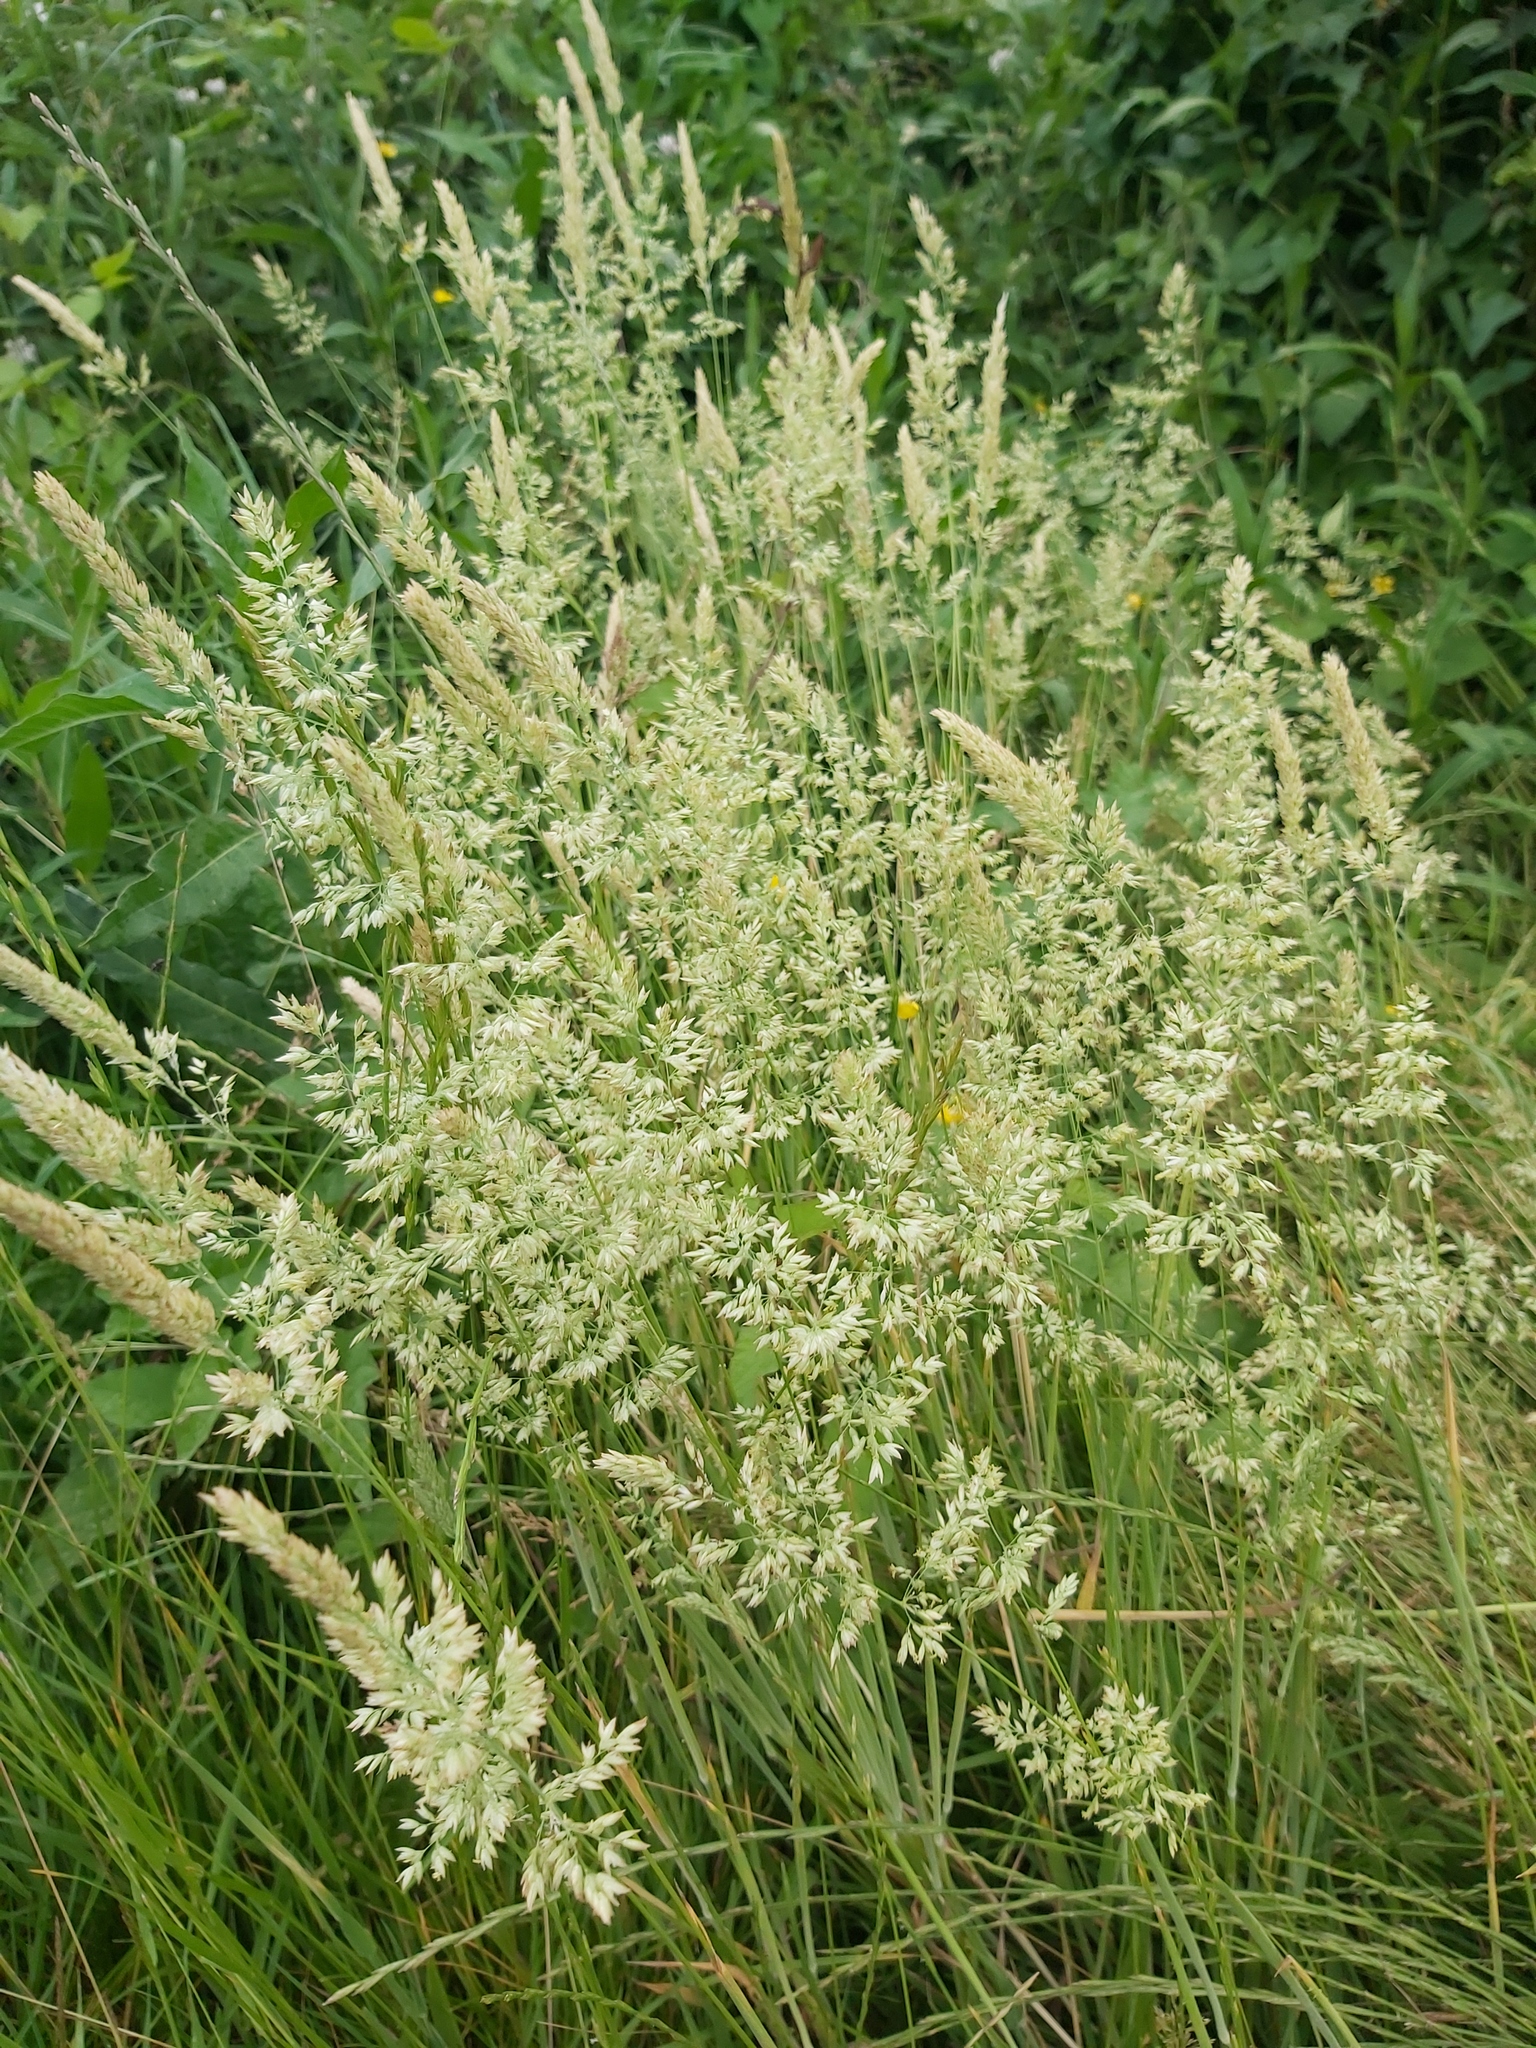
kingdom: Plantae
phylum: Tracheophyta
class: Liliopsida
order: Poales
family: Poaceae
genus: Holcus
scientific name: Holcus lanatus
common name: Yorkshire-fog
